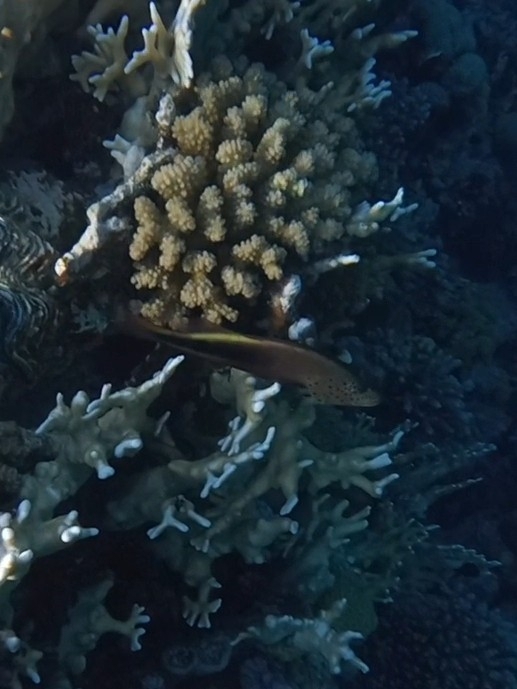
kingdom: Animalia
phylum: Chordata
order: Perciformes
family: Cirrhitidae
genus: Paracirrhites
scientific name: Paracirrhites forsteri
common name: Freckled hawkfish
